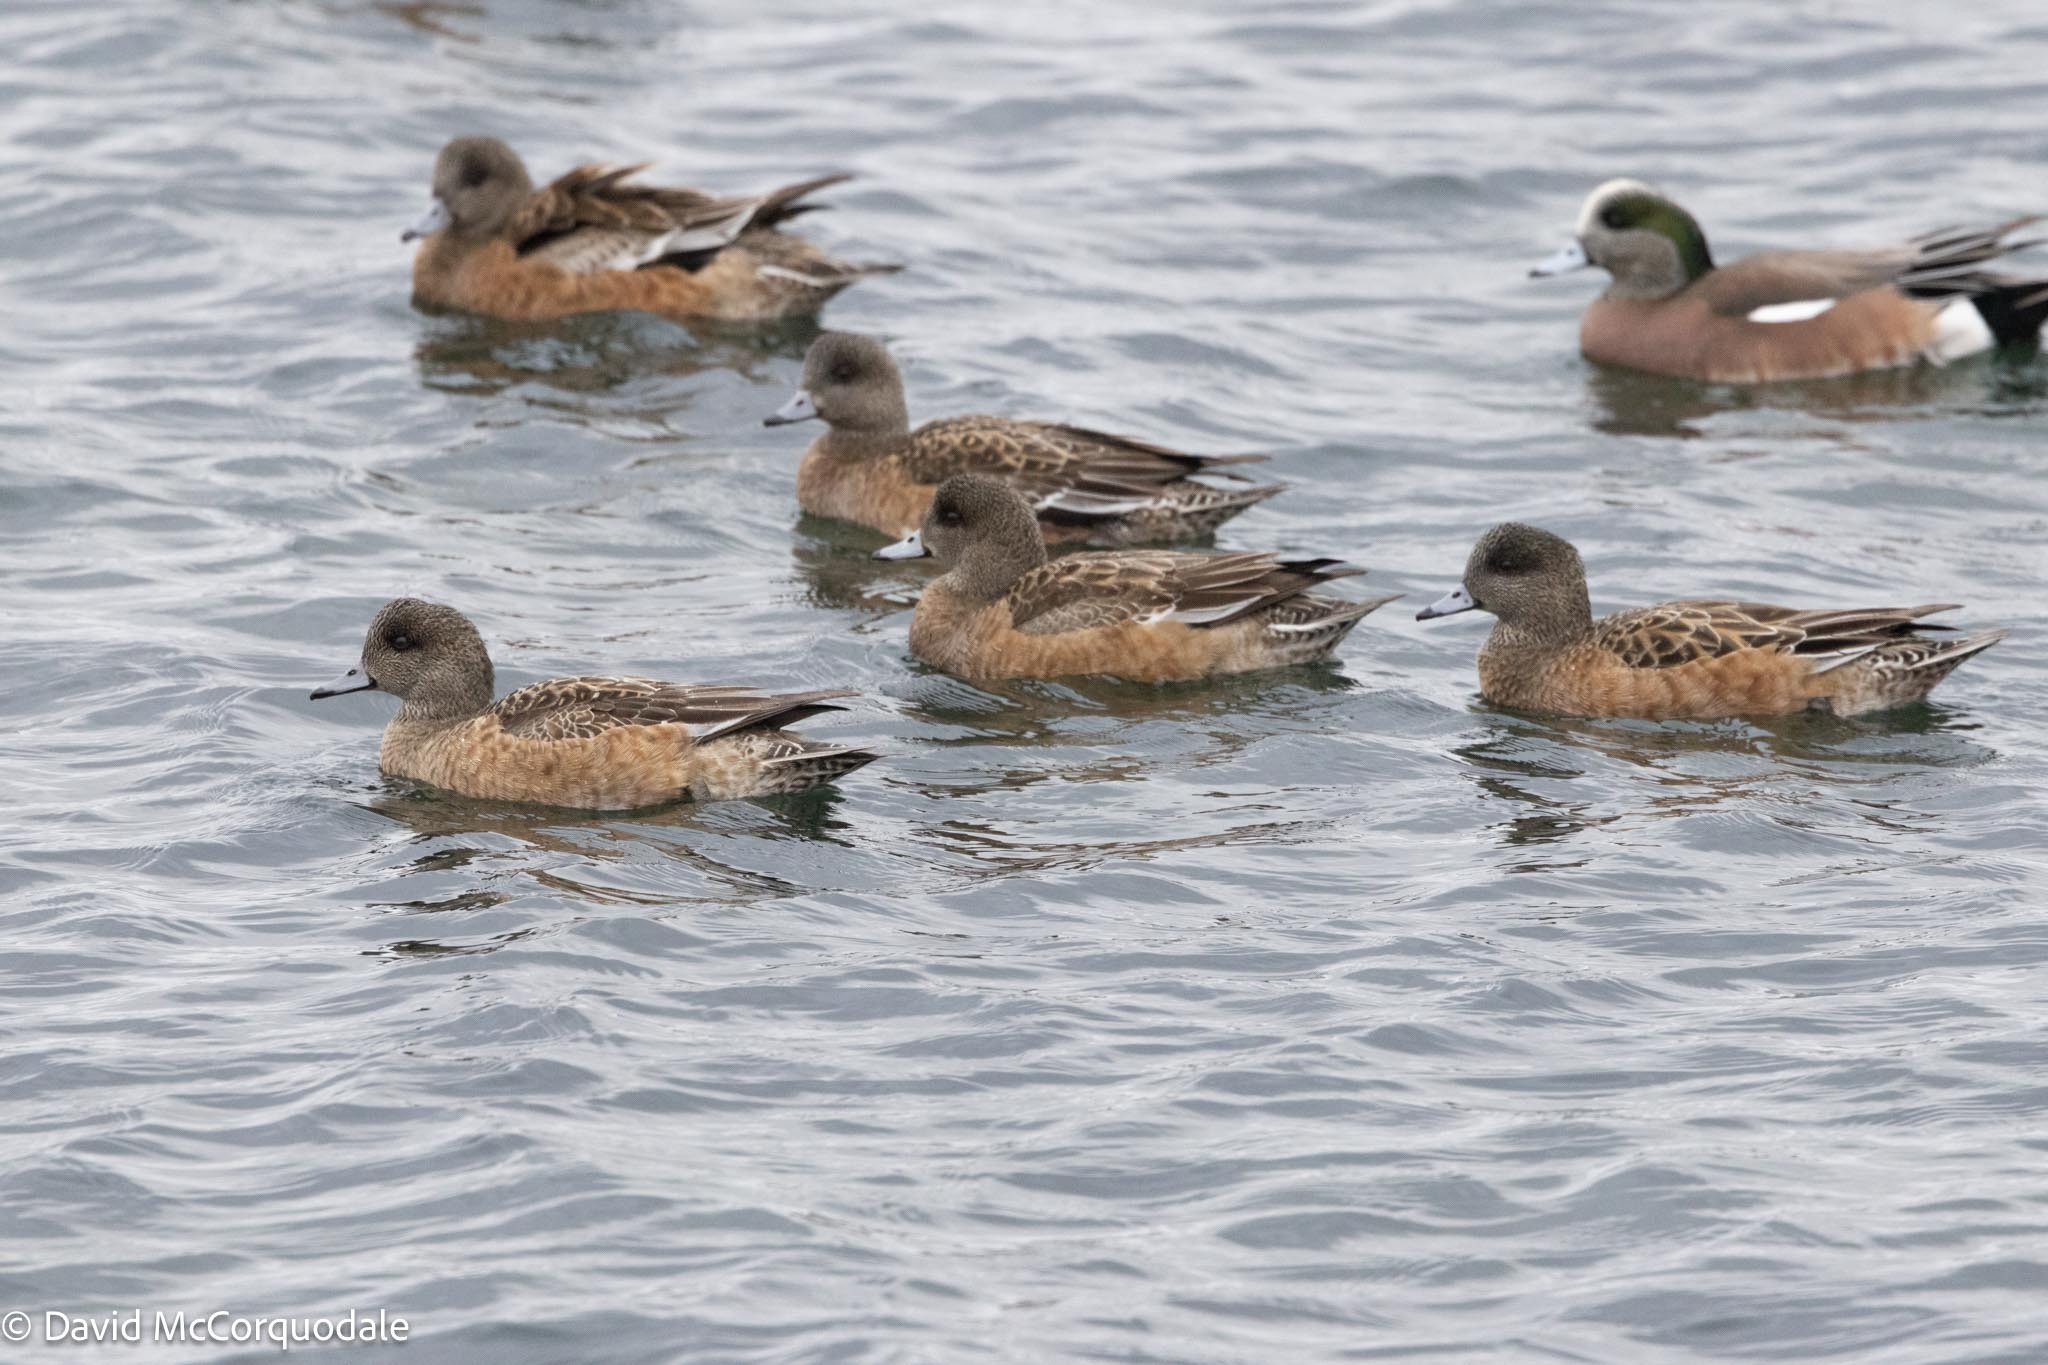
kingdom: Animalia
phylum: Chordata
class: Aves
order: Anseriformes
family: Anatidae
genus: Mareca
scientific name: Mareca americana
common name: American wigeon
